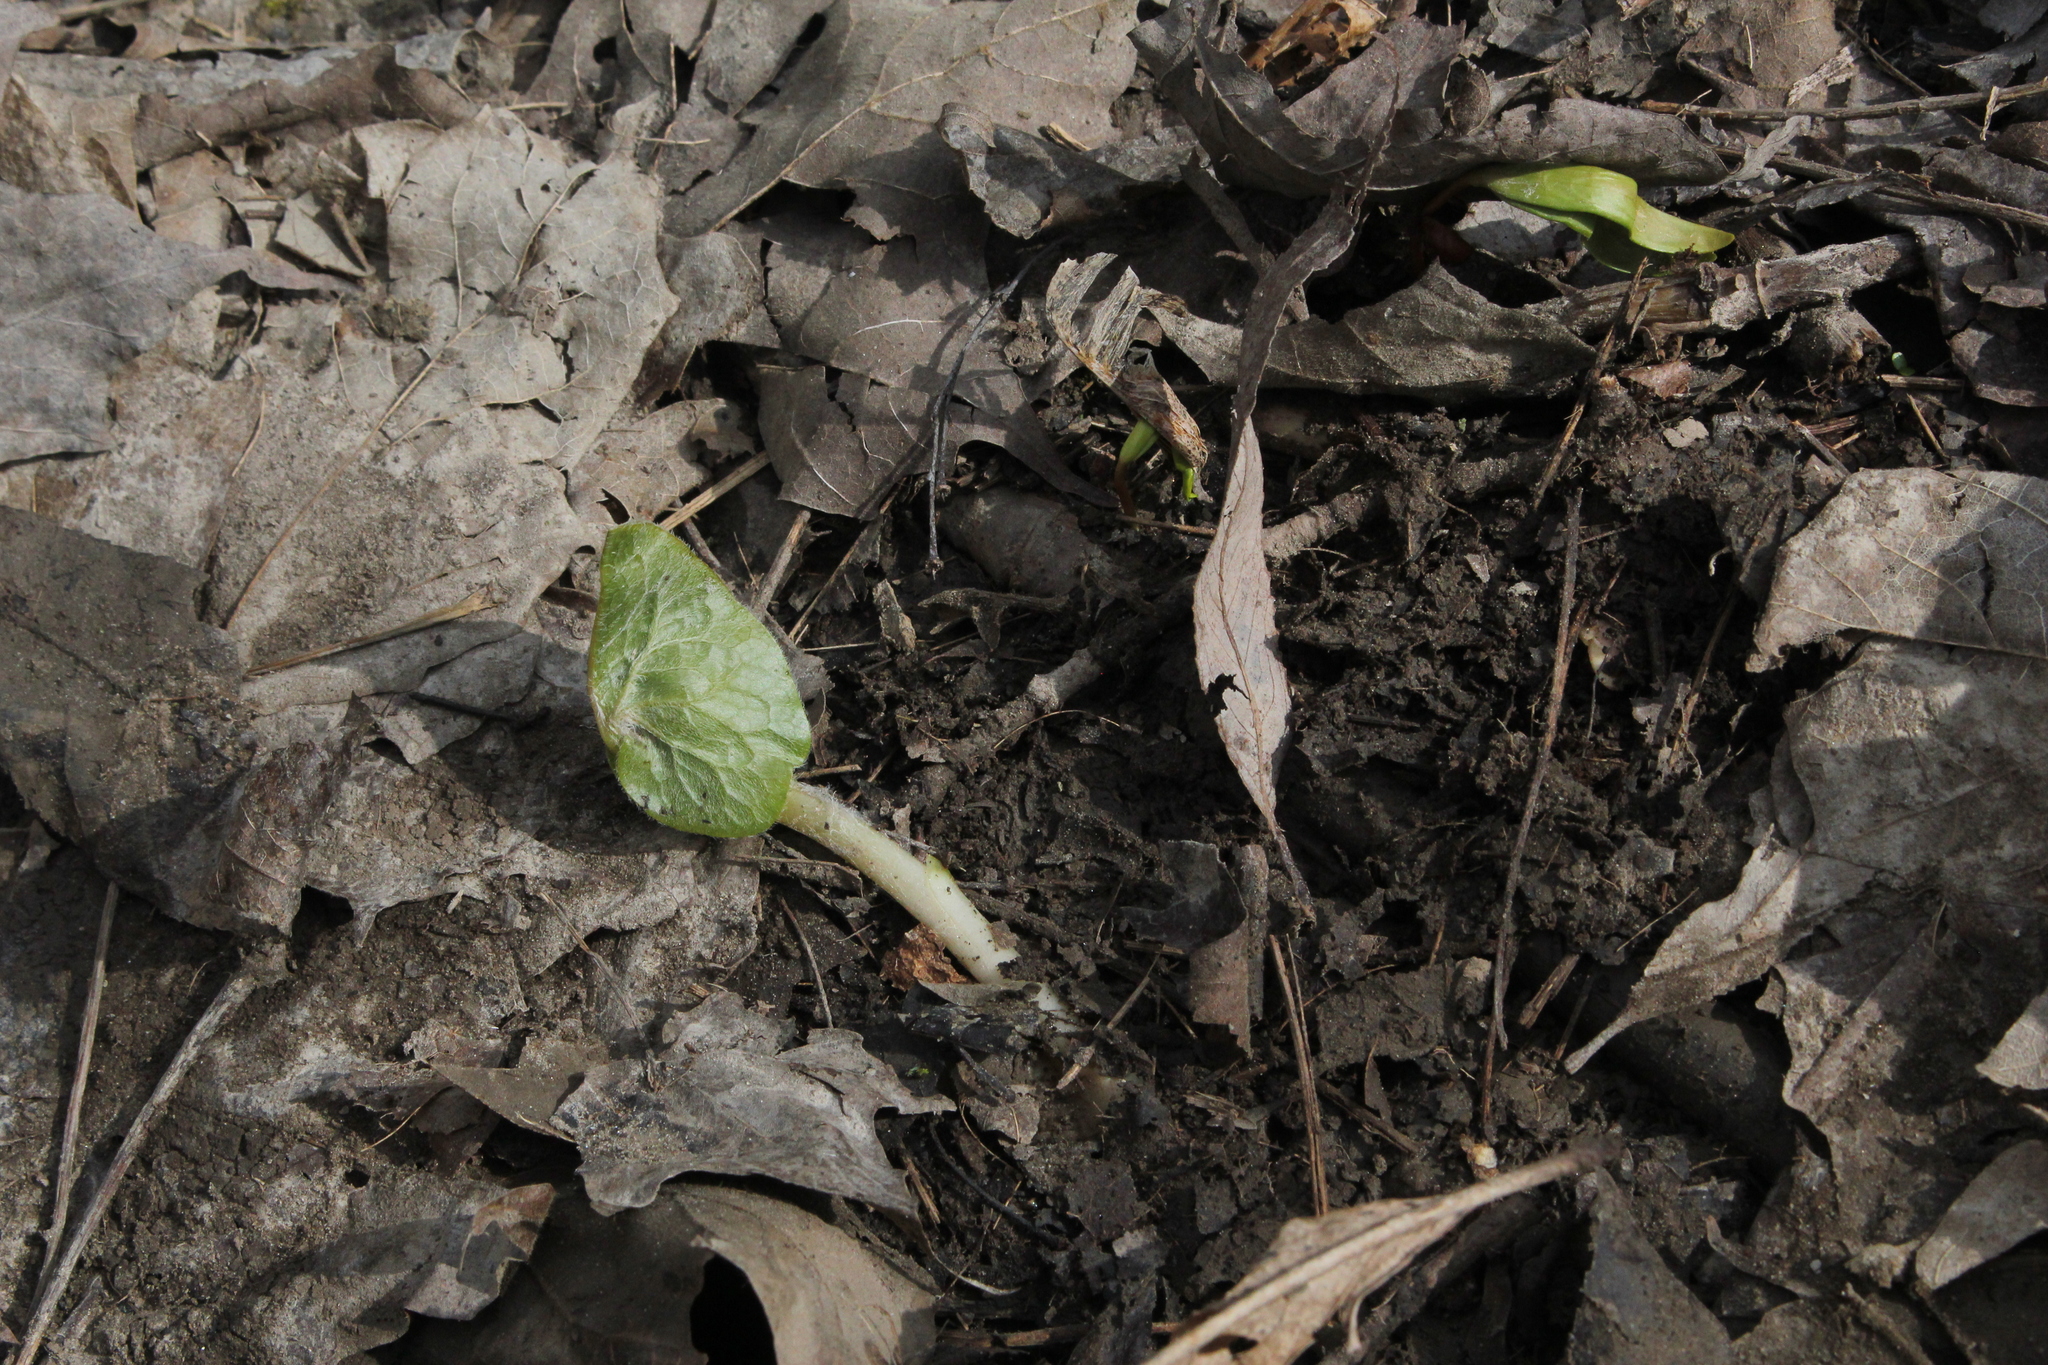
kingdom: Plantae
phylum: Tracheophyta
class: Magnoliopsida
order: Piperales
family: Aristolochiaceae
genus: Asarum
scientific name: Asarum canadense
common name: Wild ginger
